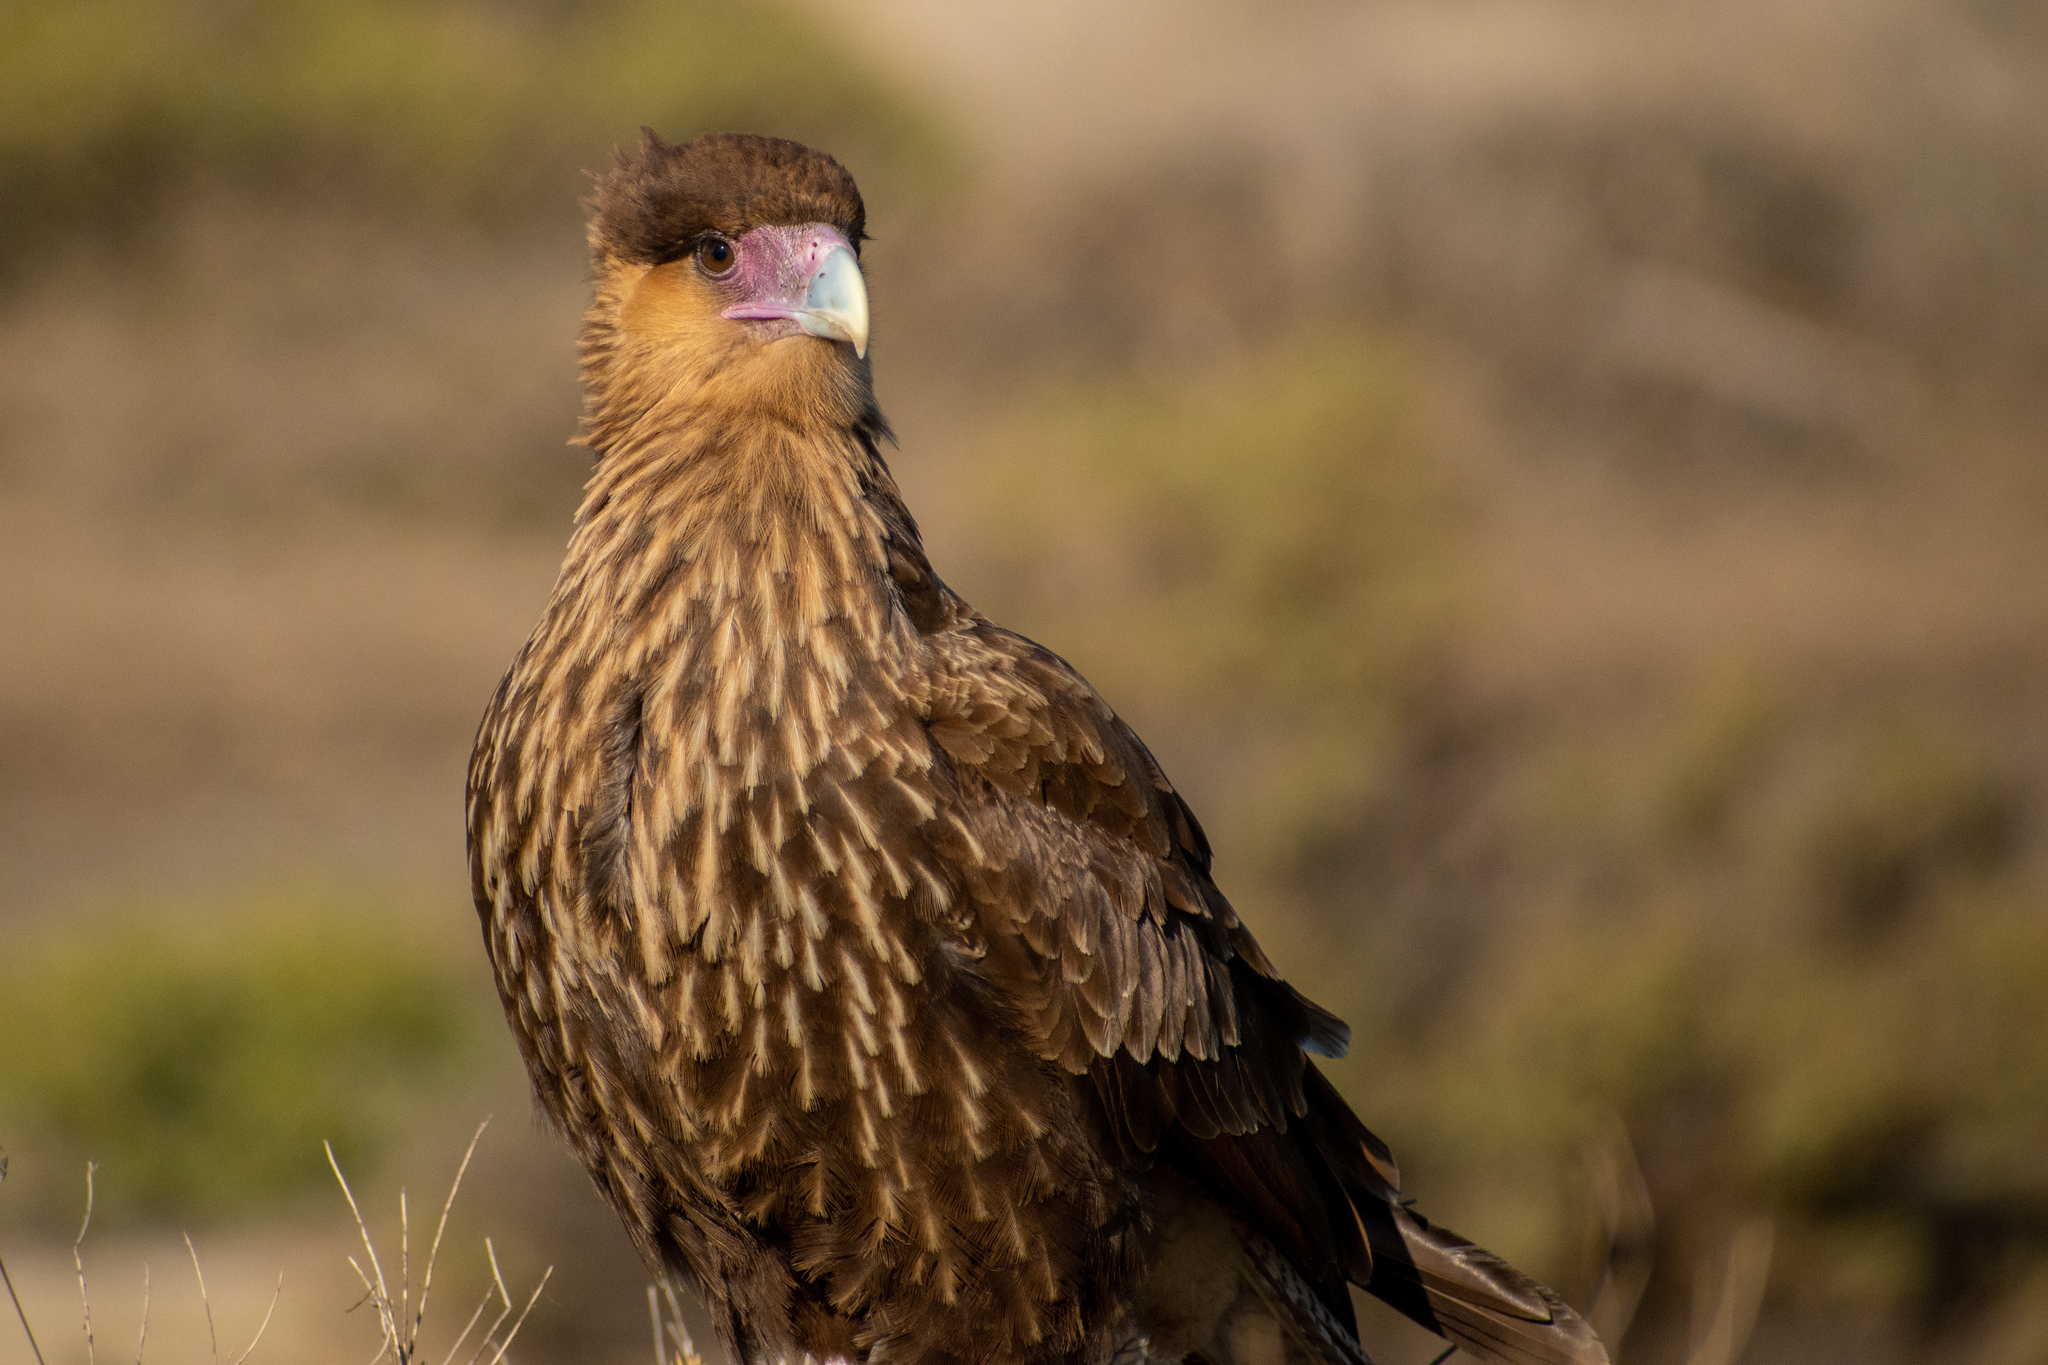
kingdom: Animalia
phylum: Chordata
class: Aves
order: Falconiformes
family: Falconidae
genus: Caracara
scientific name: Caracara plancus
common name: Southern caracara
